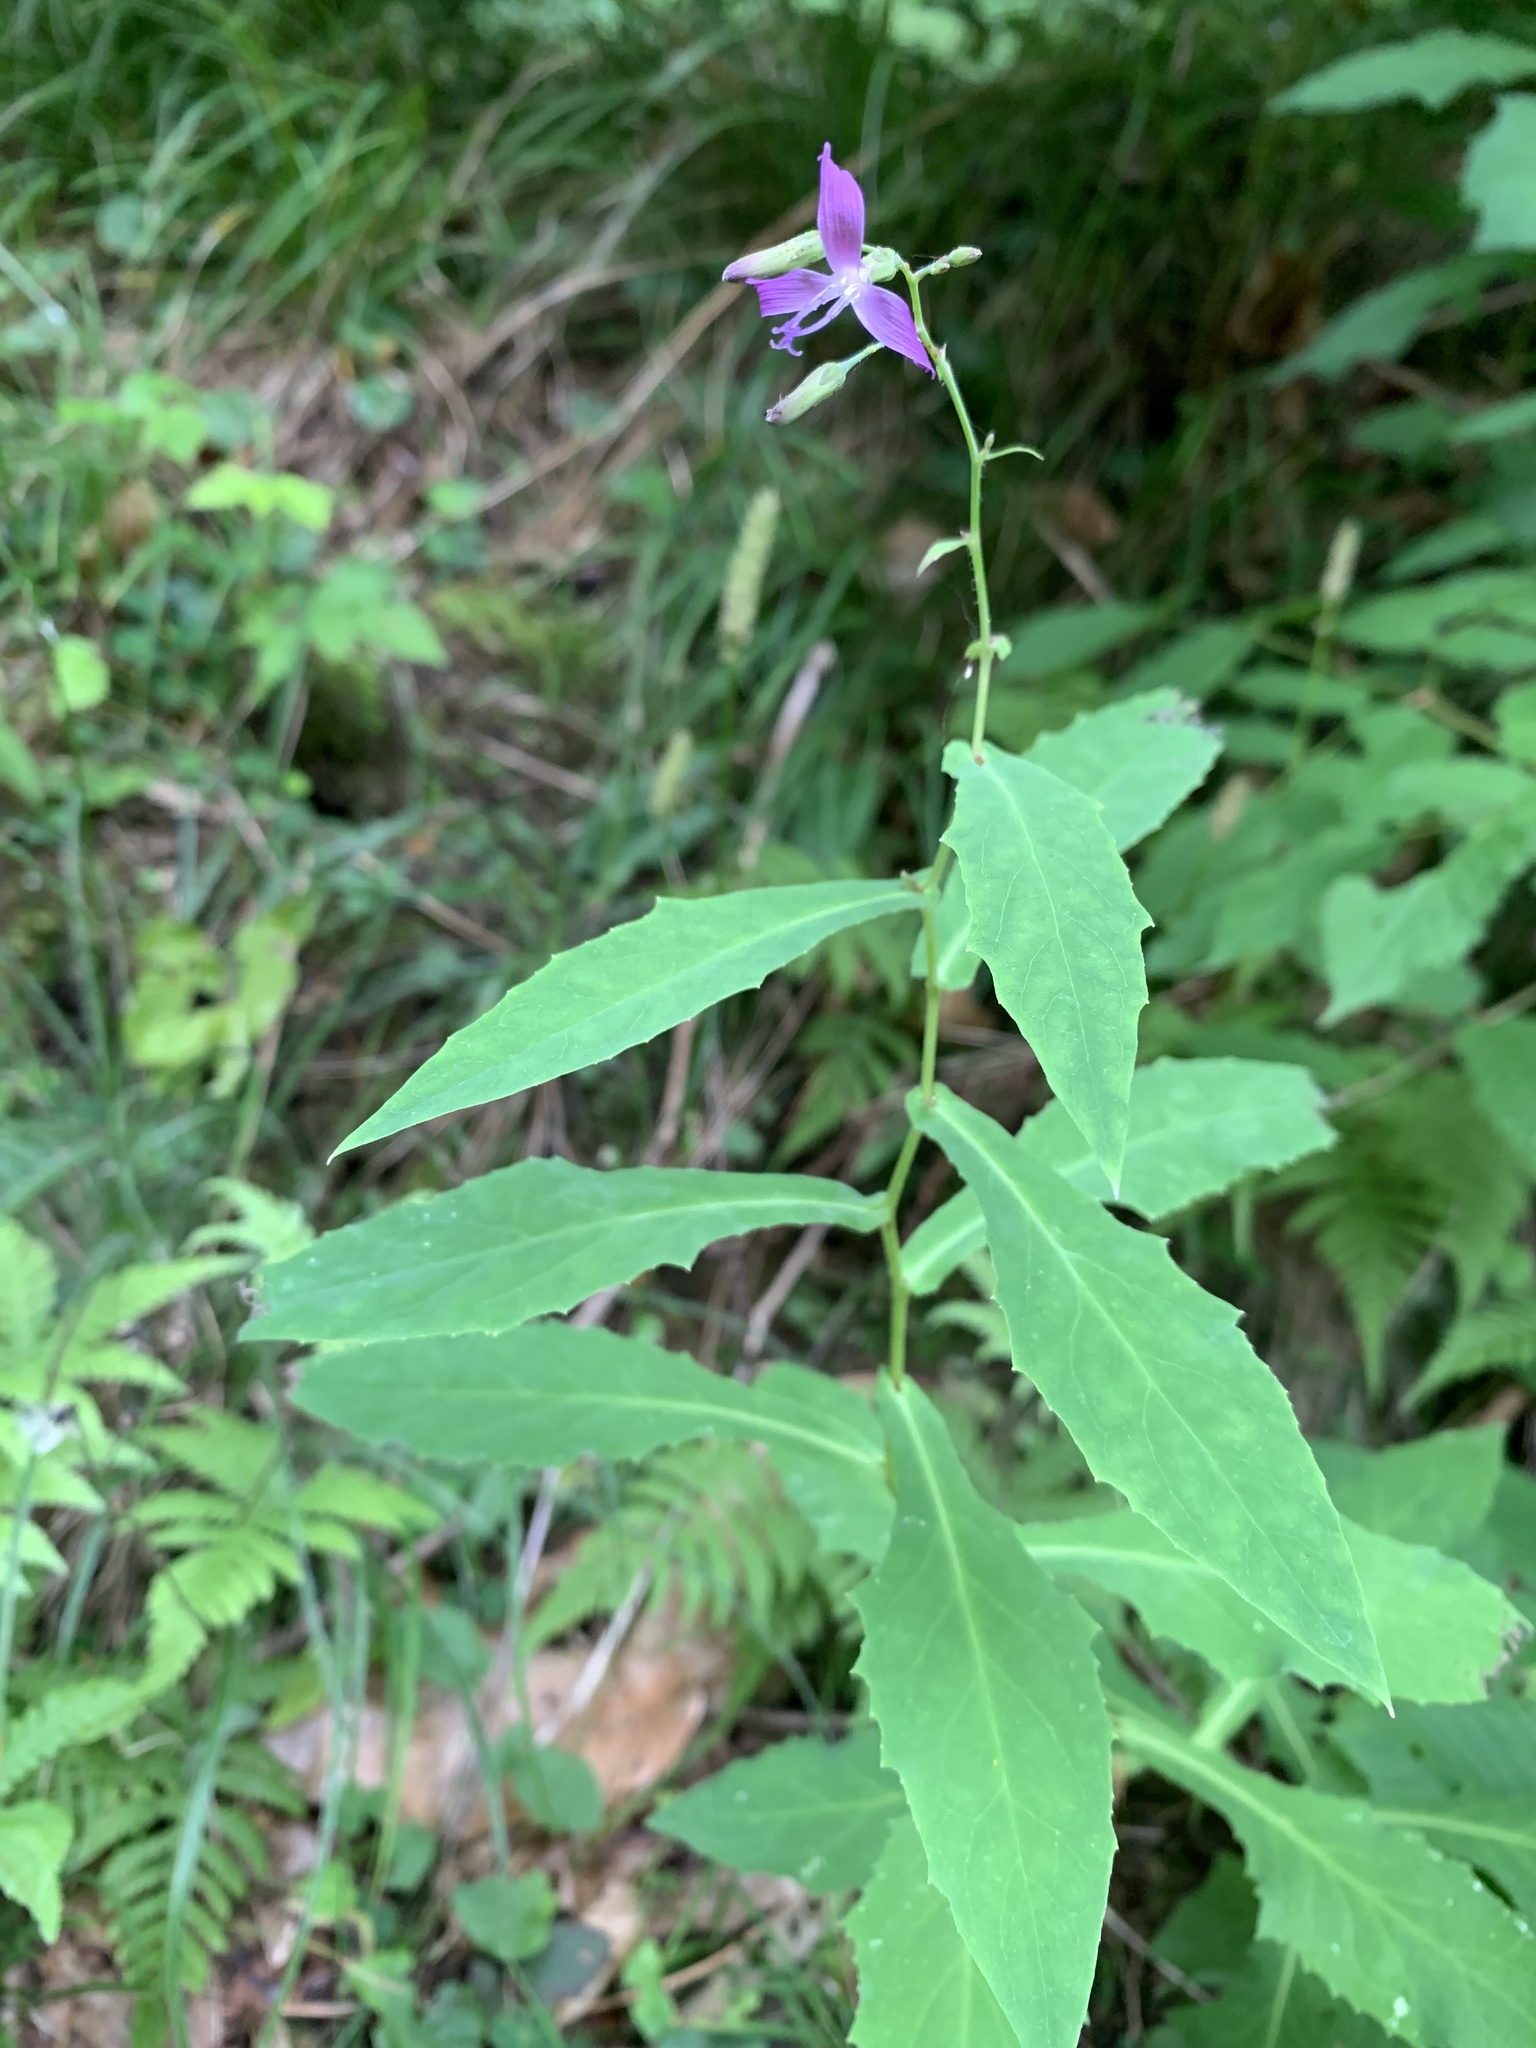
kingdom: Plantae
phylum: Tracheophyta
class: Magnoliopsida
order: Asterales
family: Asteraceae
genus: Prenanthes
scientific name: Prenanthes purpurea
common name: Purple lettuce
